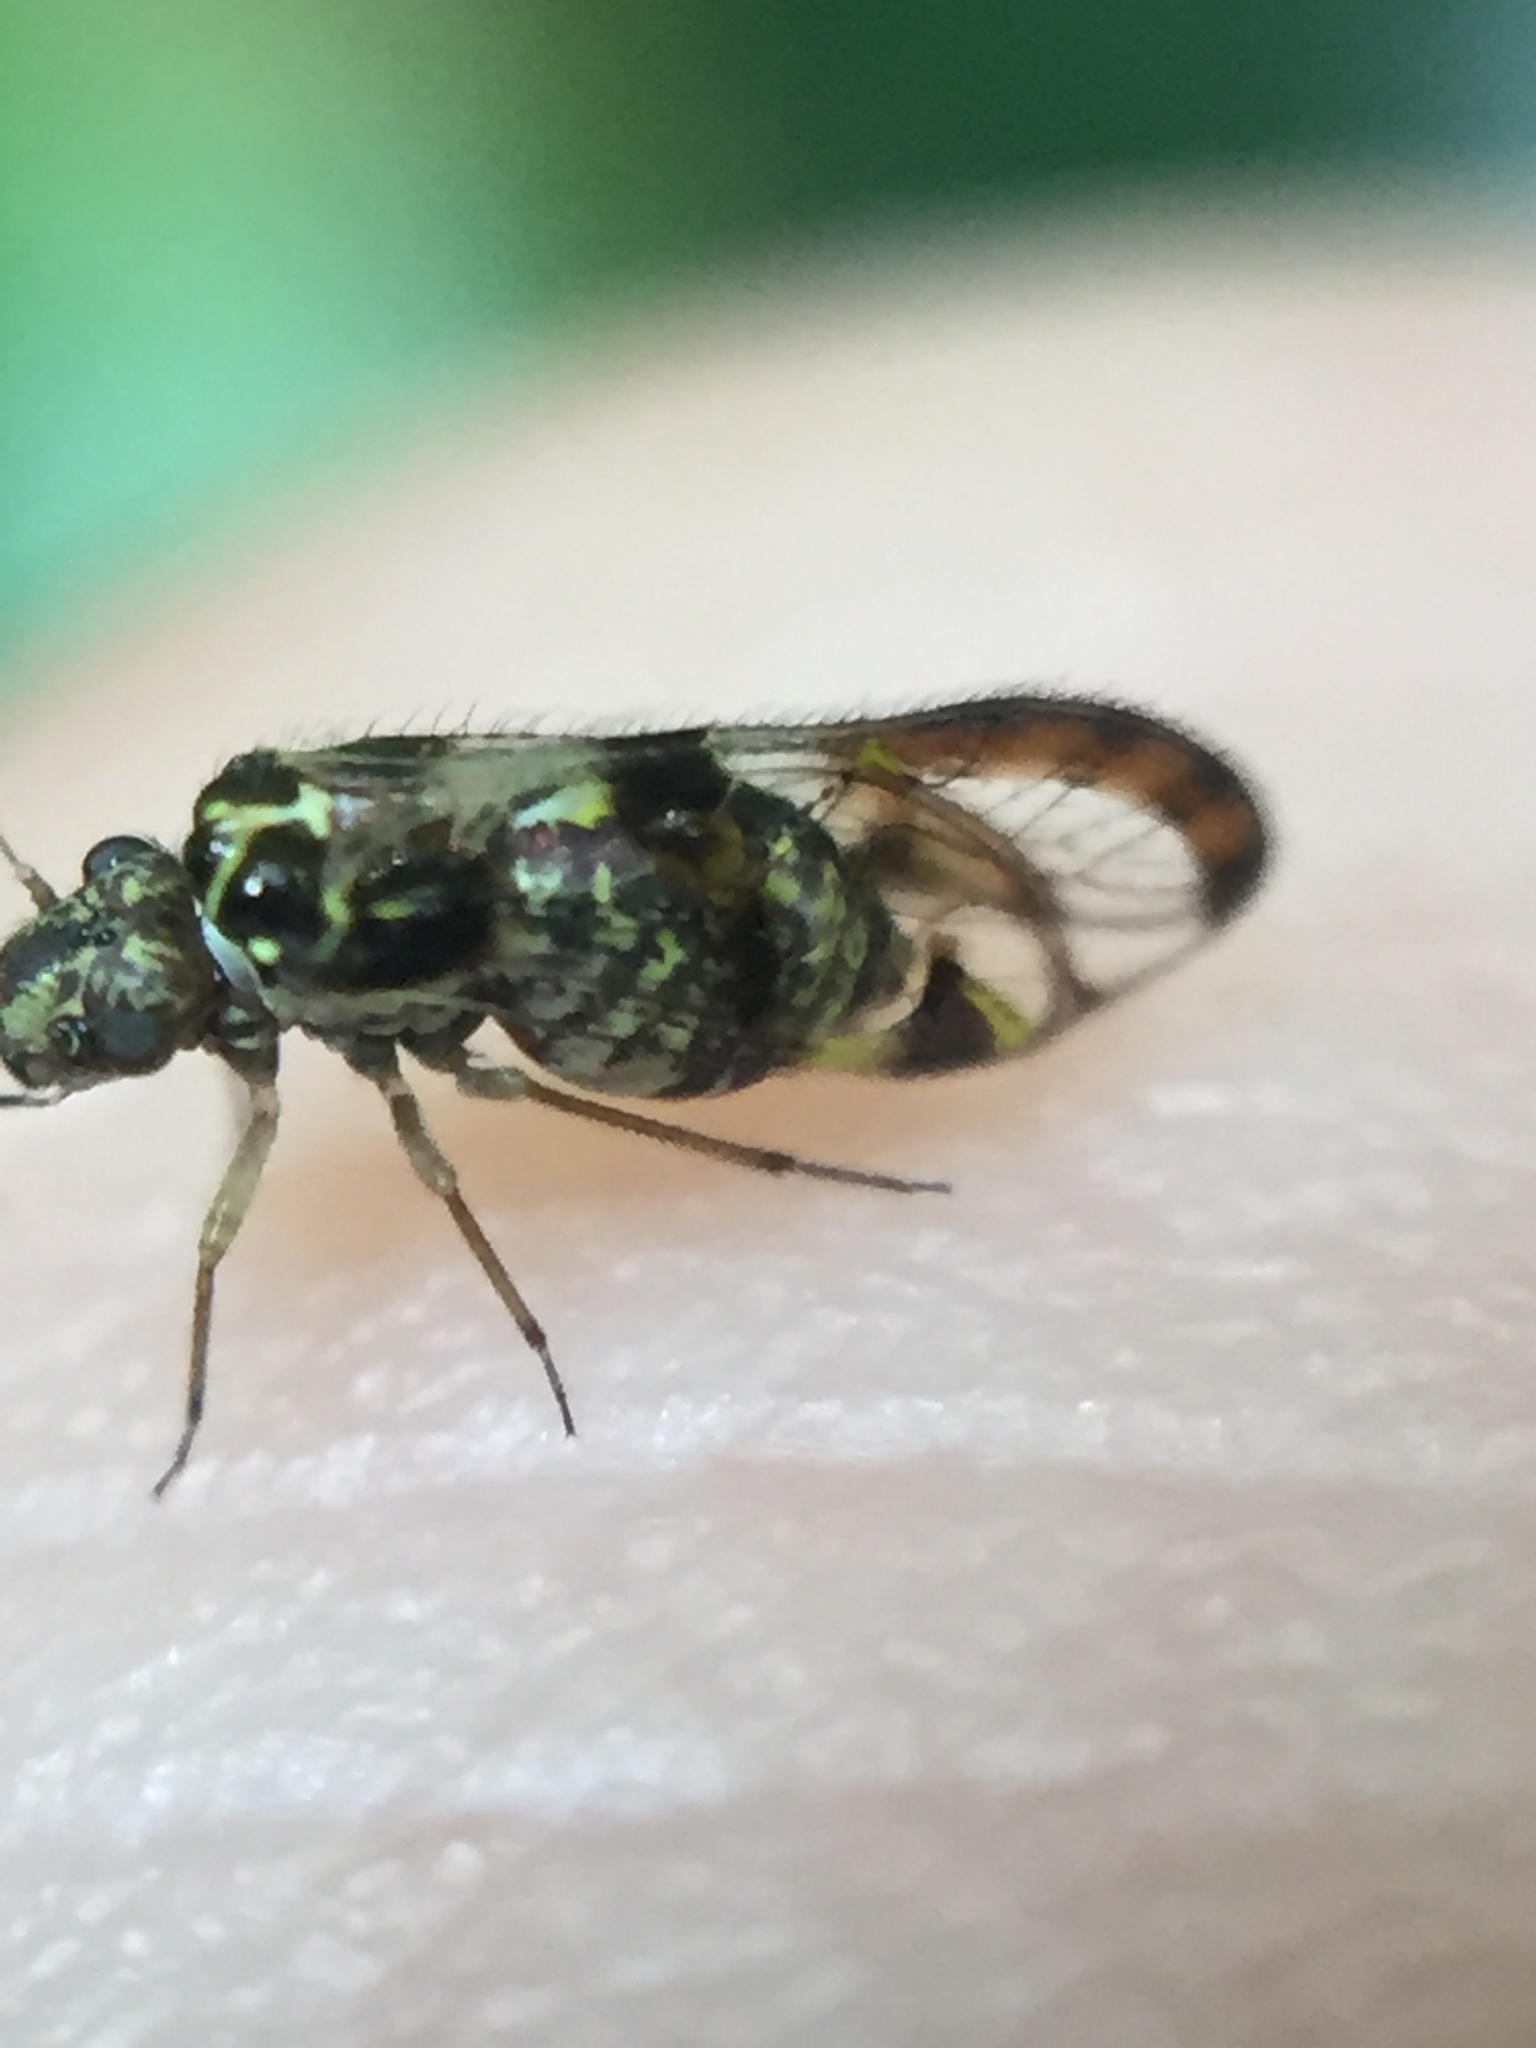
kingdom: Animalia
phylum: Arthropoda
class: Insecta
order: Psocodea
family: Philotarsidae
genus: Abelopsocus
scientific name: Abelopsocus basipunctatus
